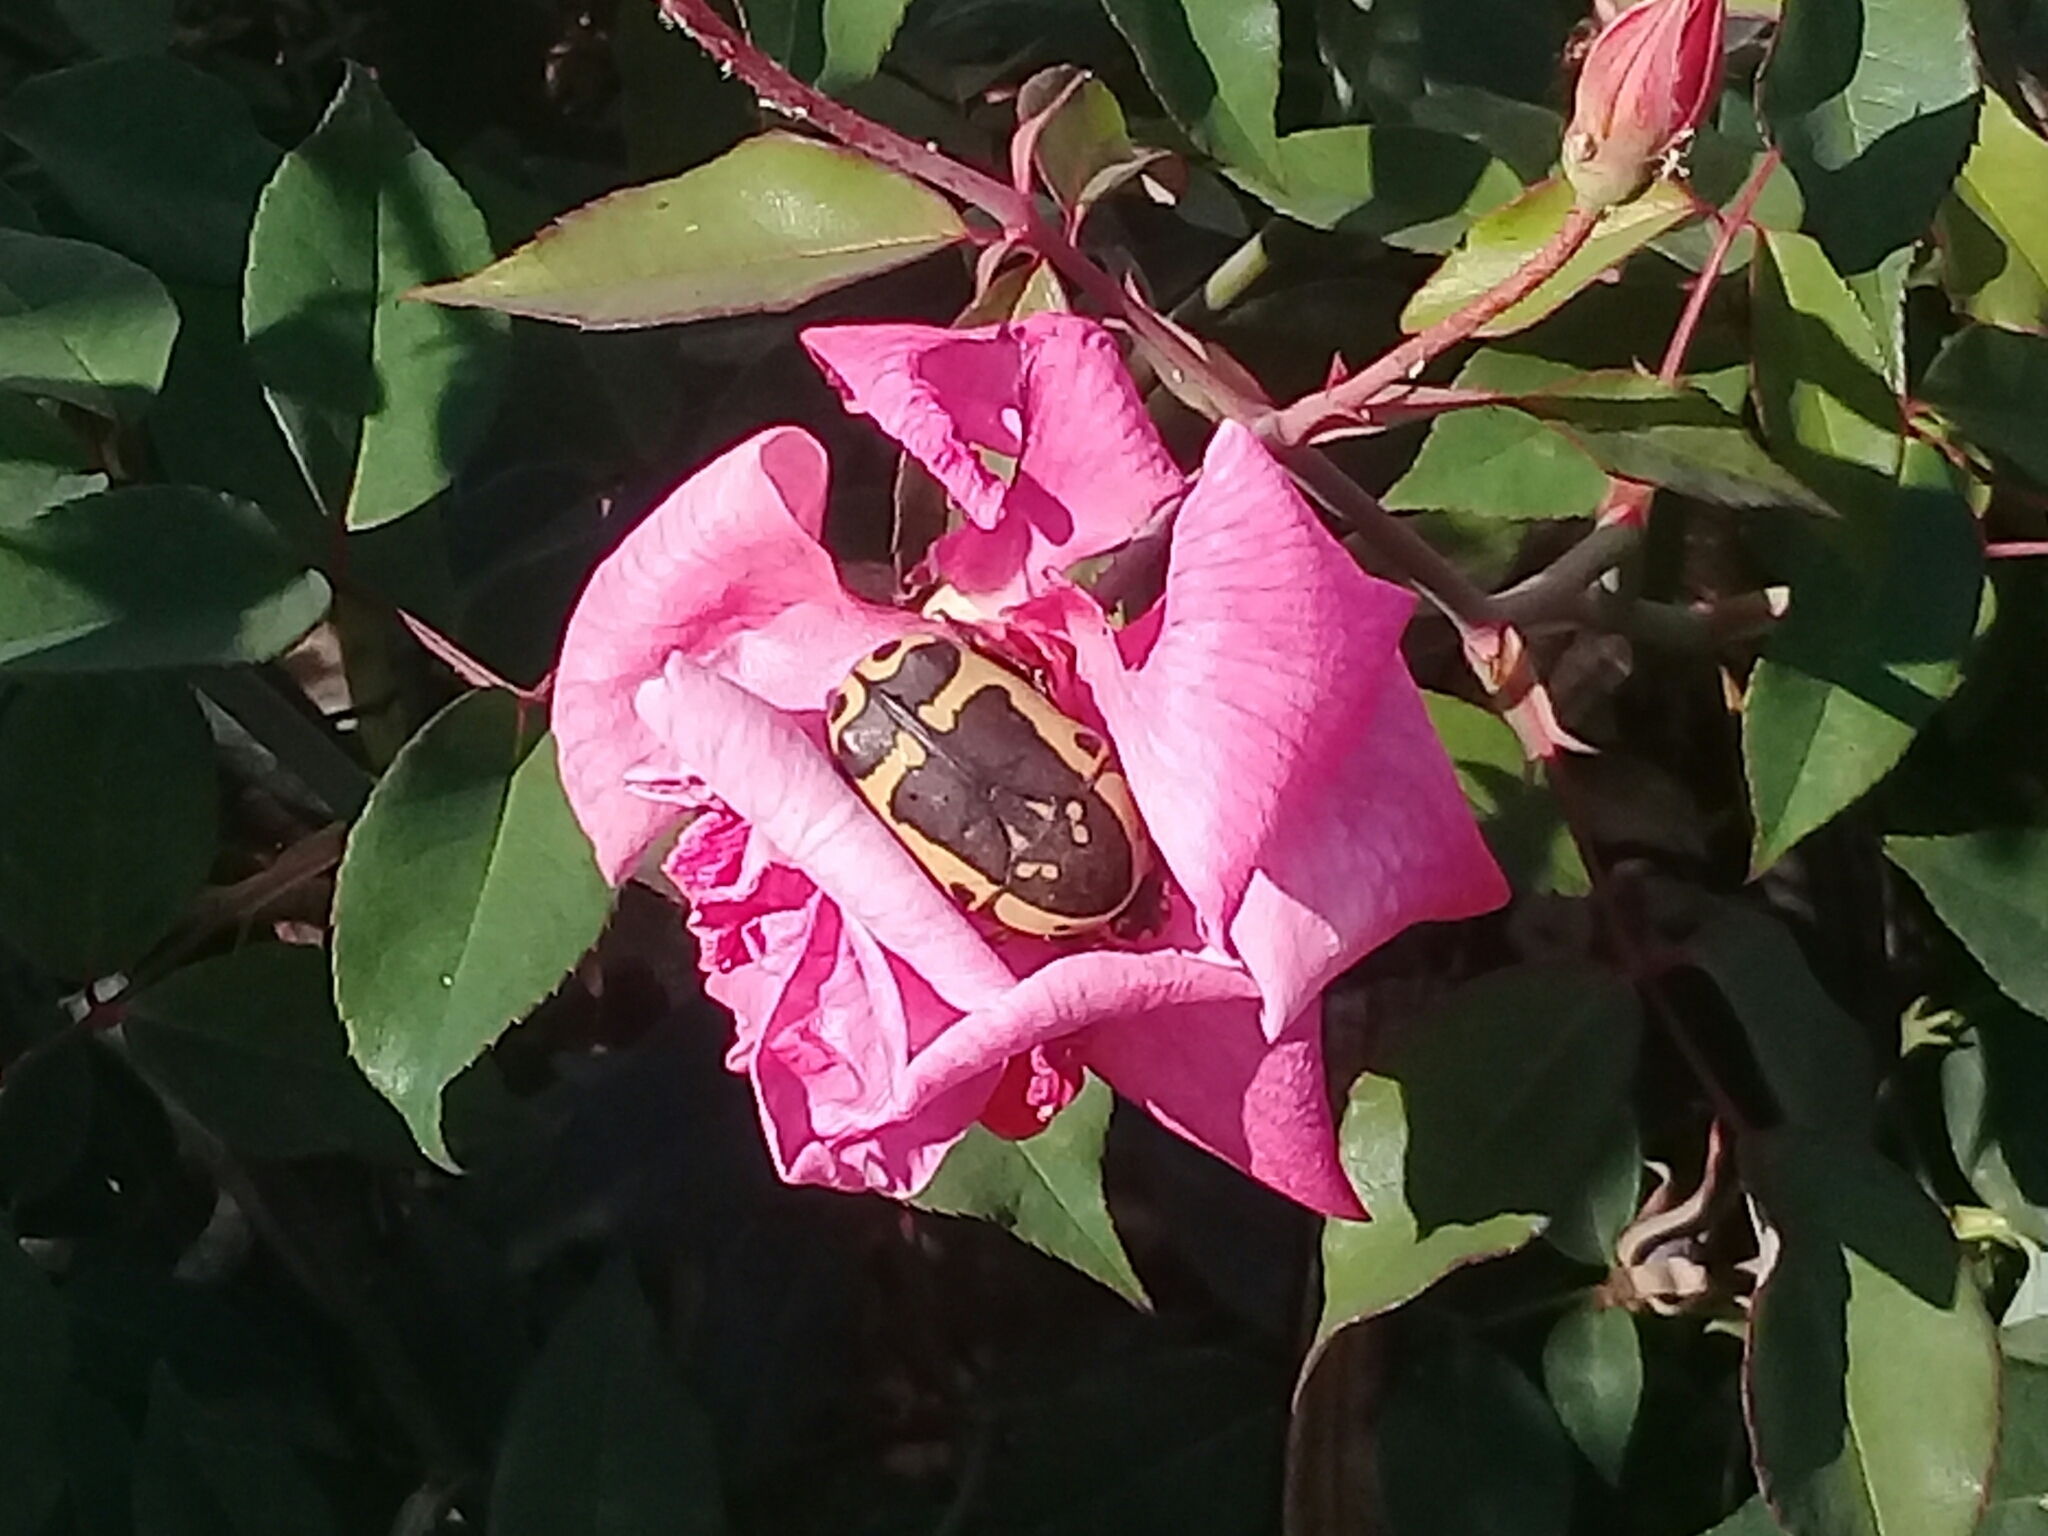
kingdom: Animalia
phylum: Arthropoda
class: Insecta
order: Coleoptera
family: Scarabaeidae
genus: Pachnoda
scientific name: Pachnoda sinuata
